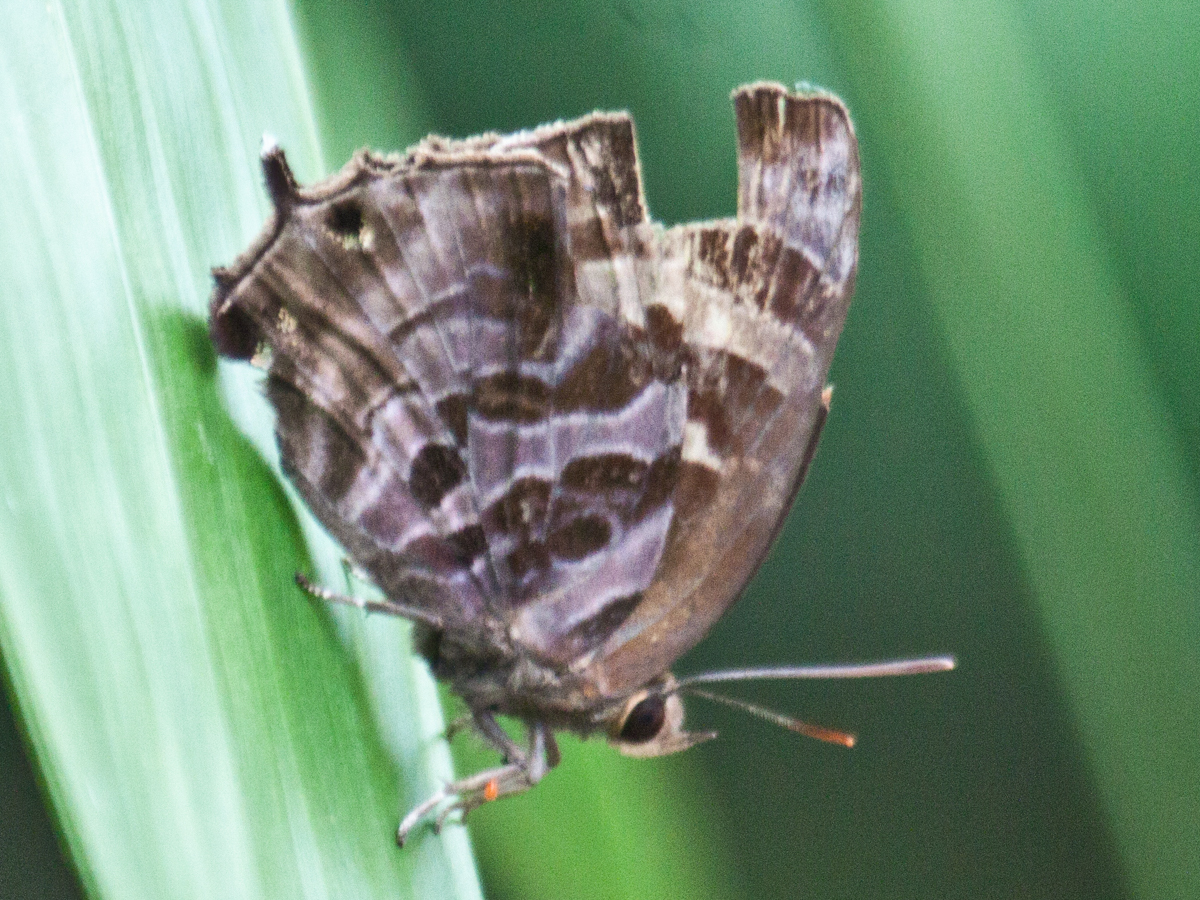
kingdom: Animalia
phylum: Arthropoda
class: Insecta
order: Lepidoptera
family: Lycaenidae
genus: Flos
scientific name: Flos
